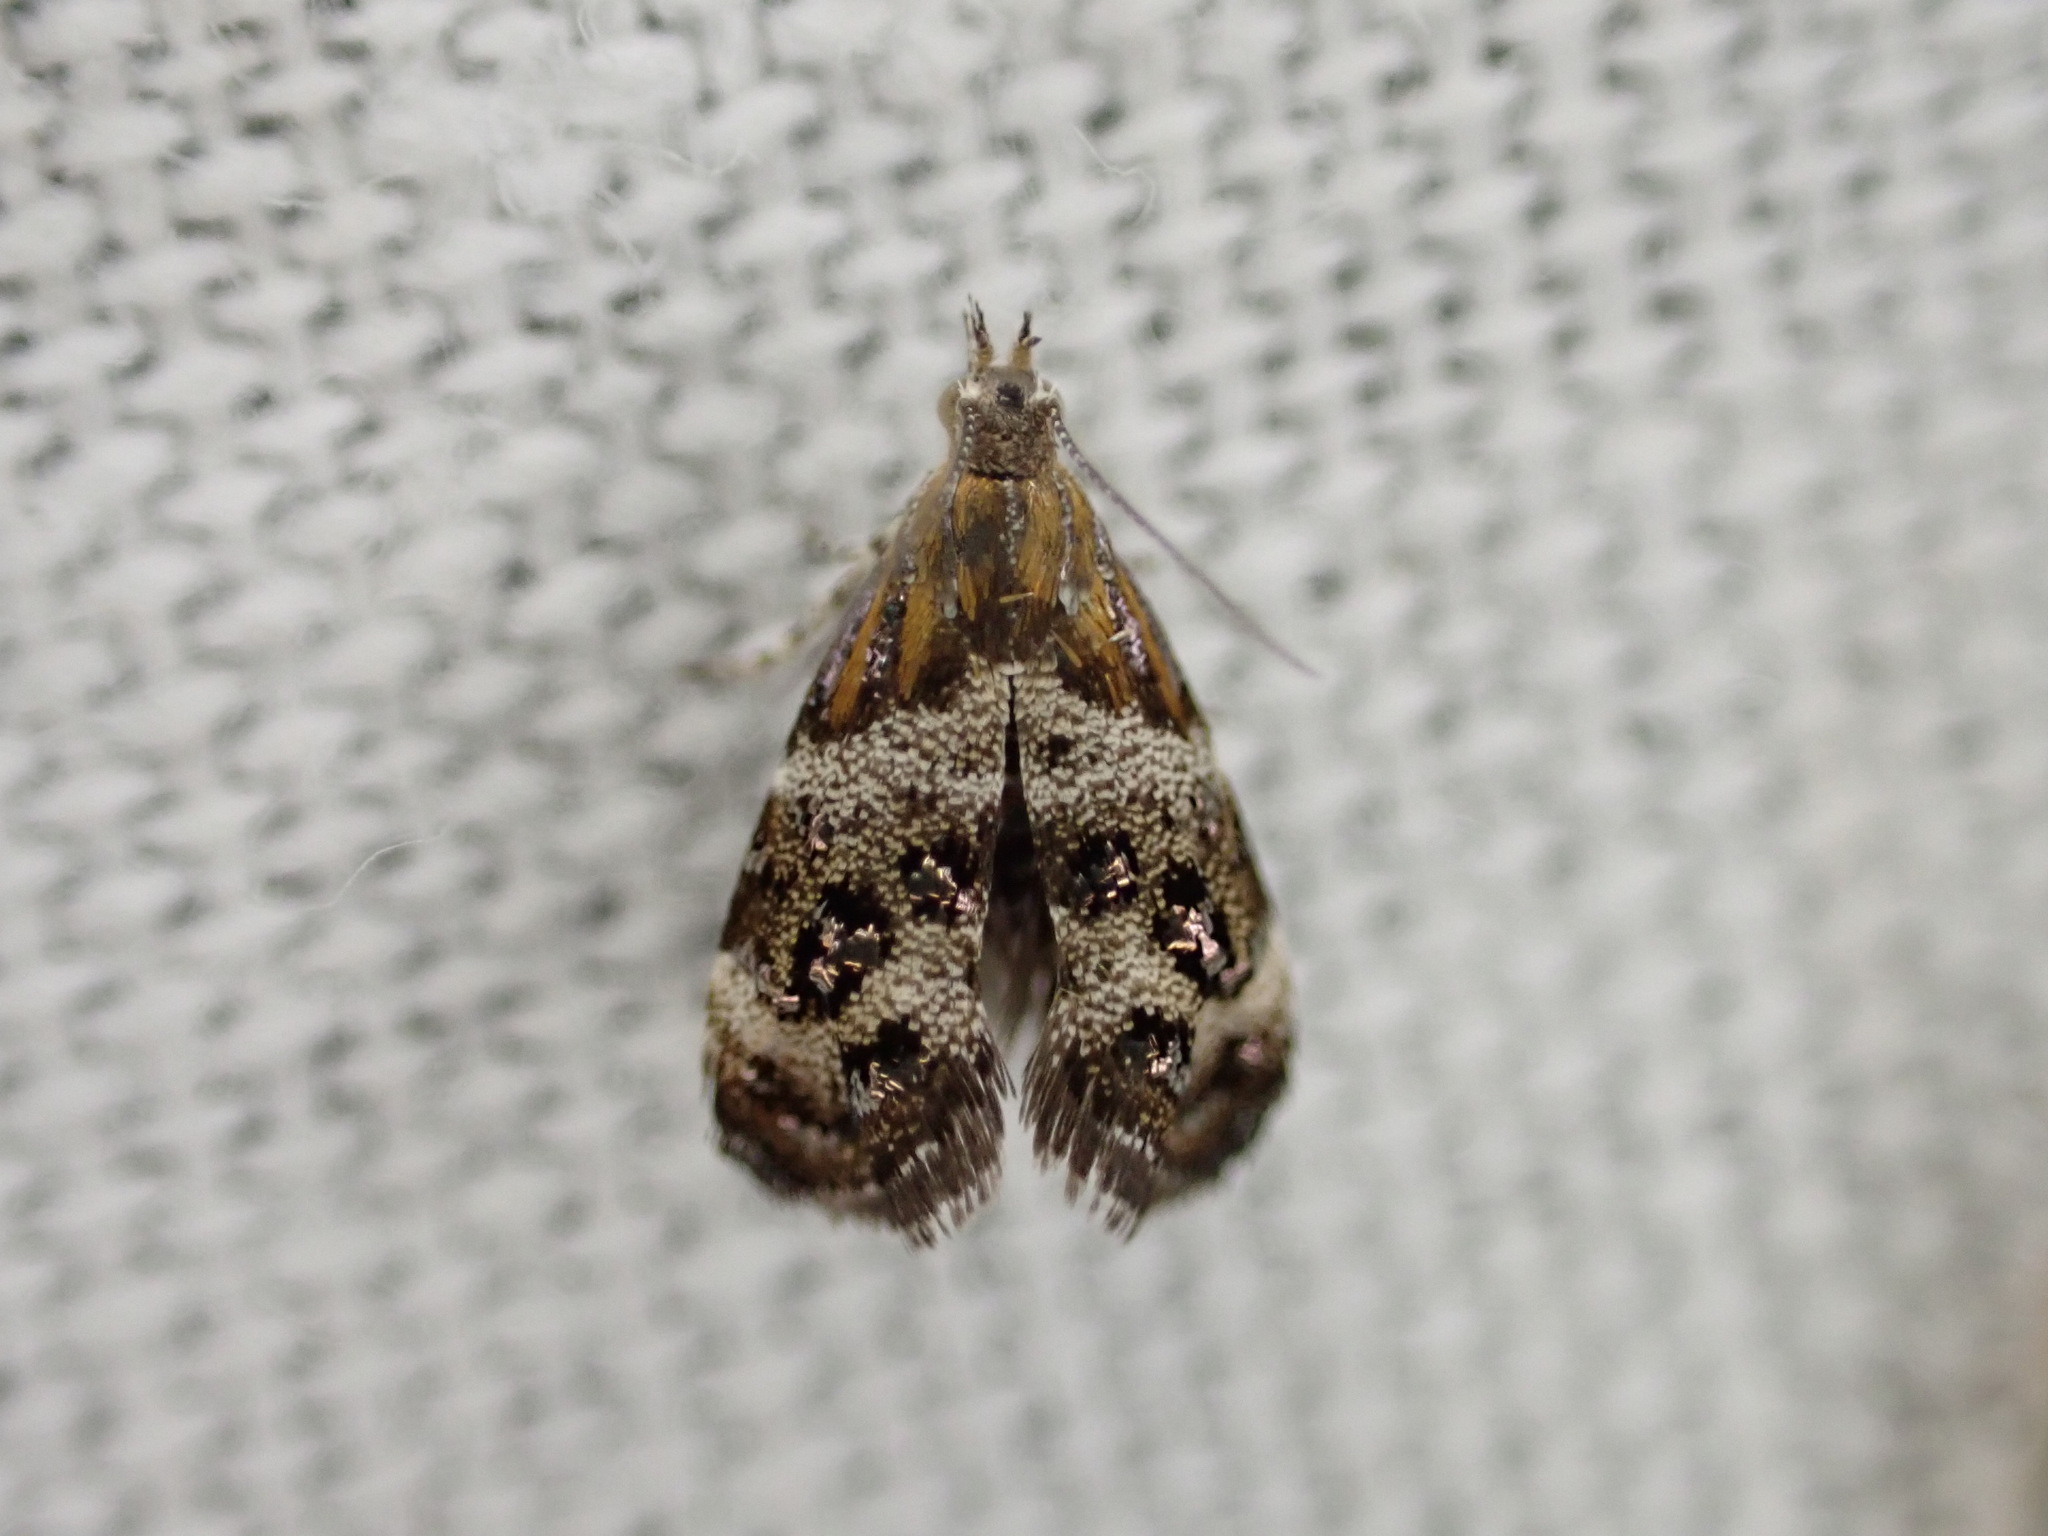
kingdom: Animalia
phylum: Arthropoda
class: Insecta
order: Lepidoptera
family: Choreutidae
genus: Tebenna
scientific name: Tebenna micalis
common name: Vagrant twitcher
